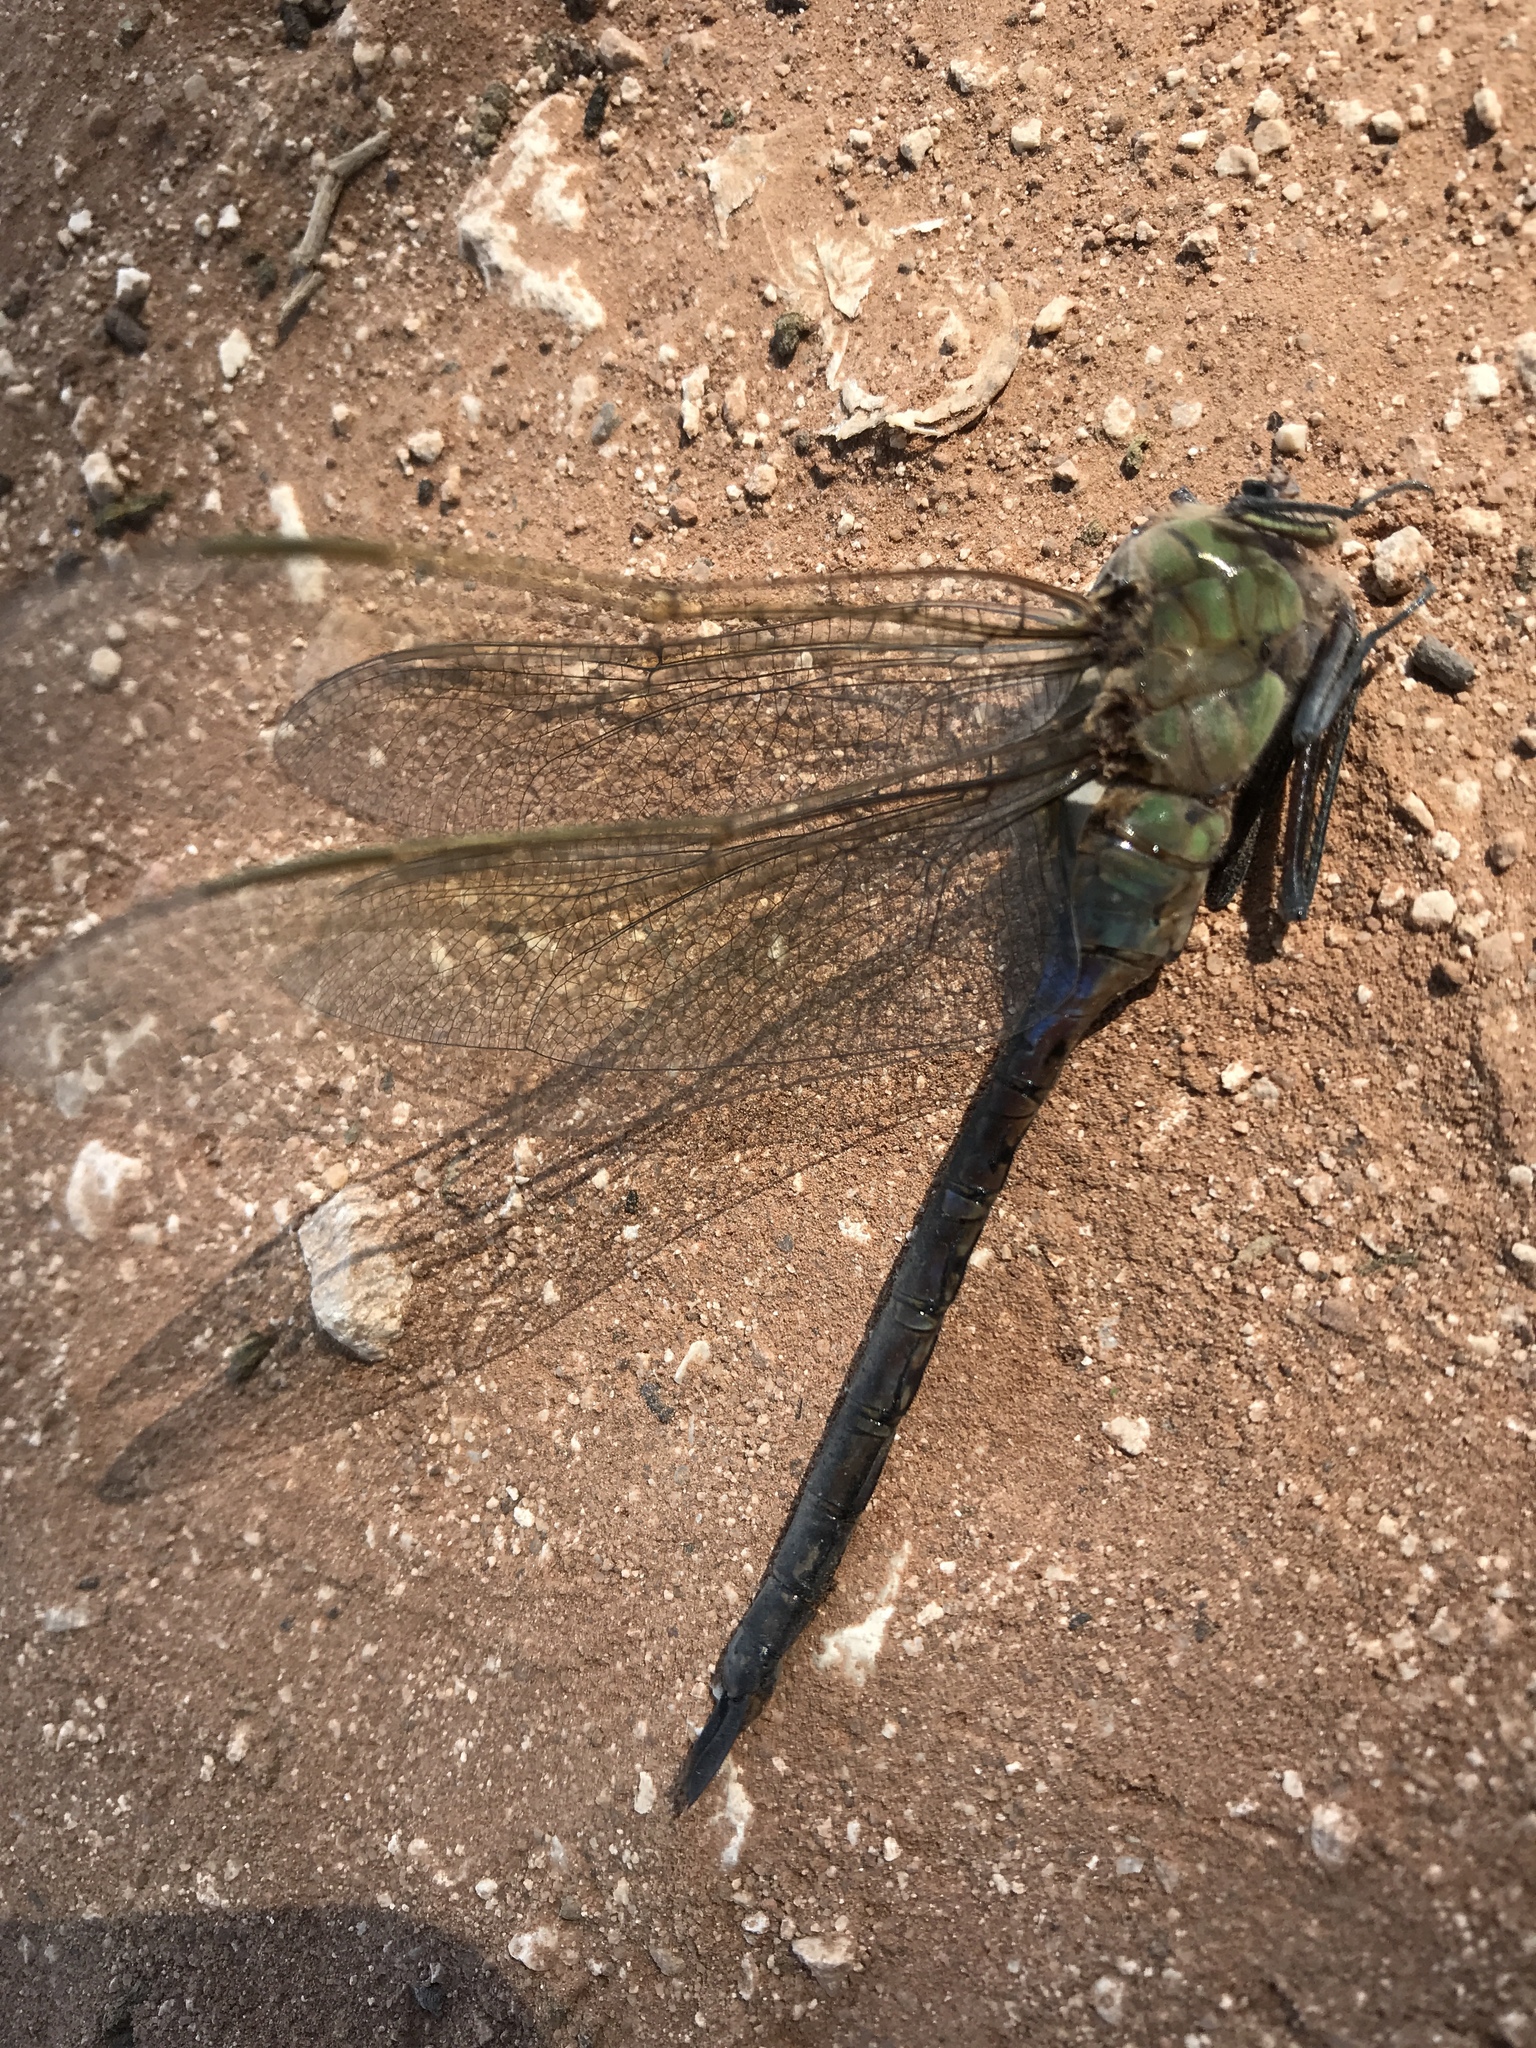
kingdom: Animalia
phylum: Arthropoda
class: Insecta
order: Odonata
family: Aeshnidae
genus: Anax
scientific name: Anax junius
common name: Common green darner
